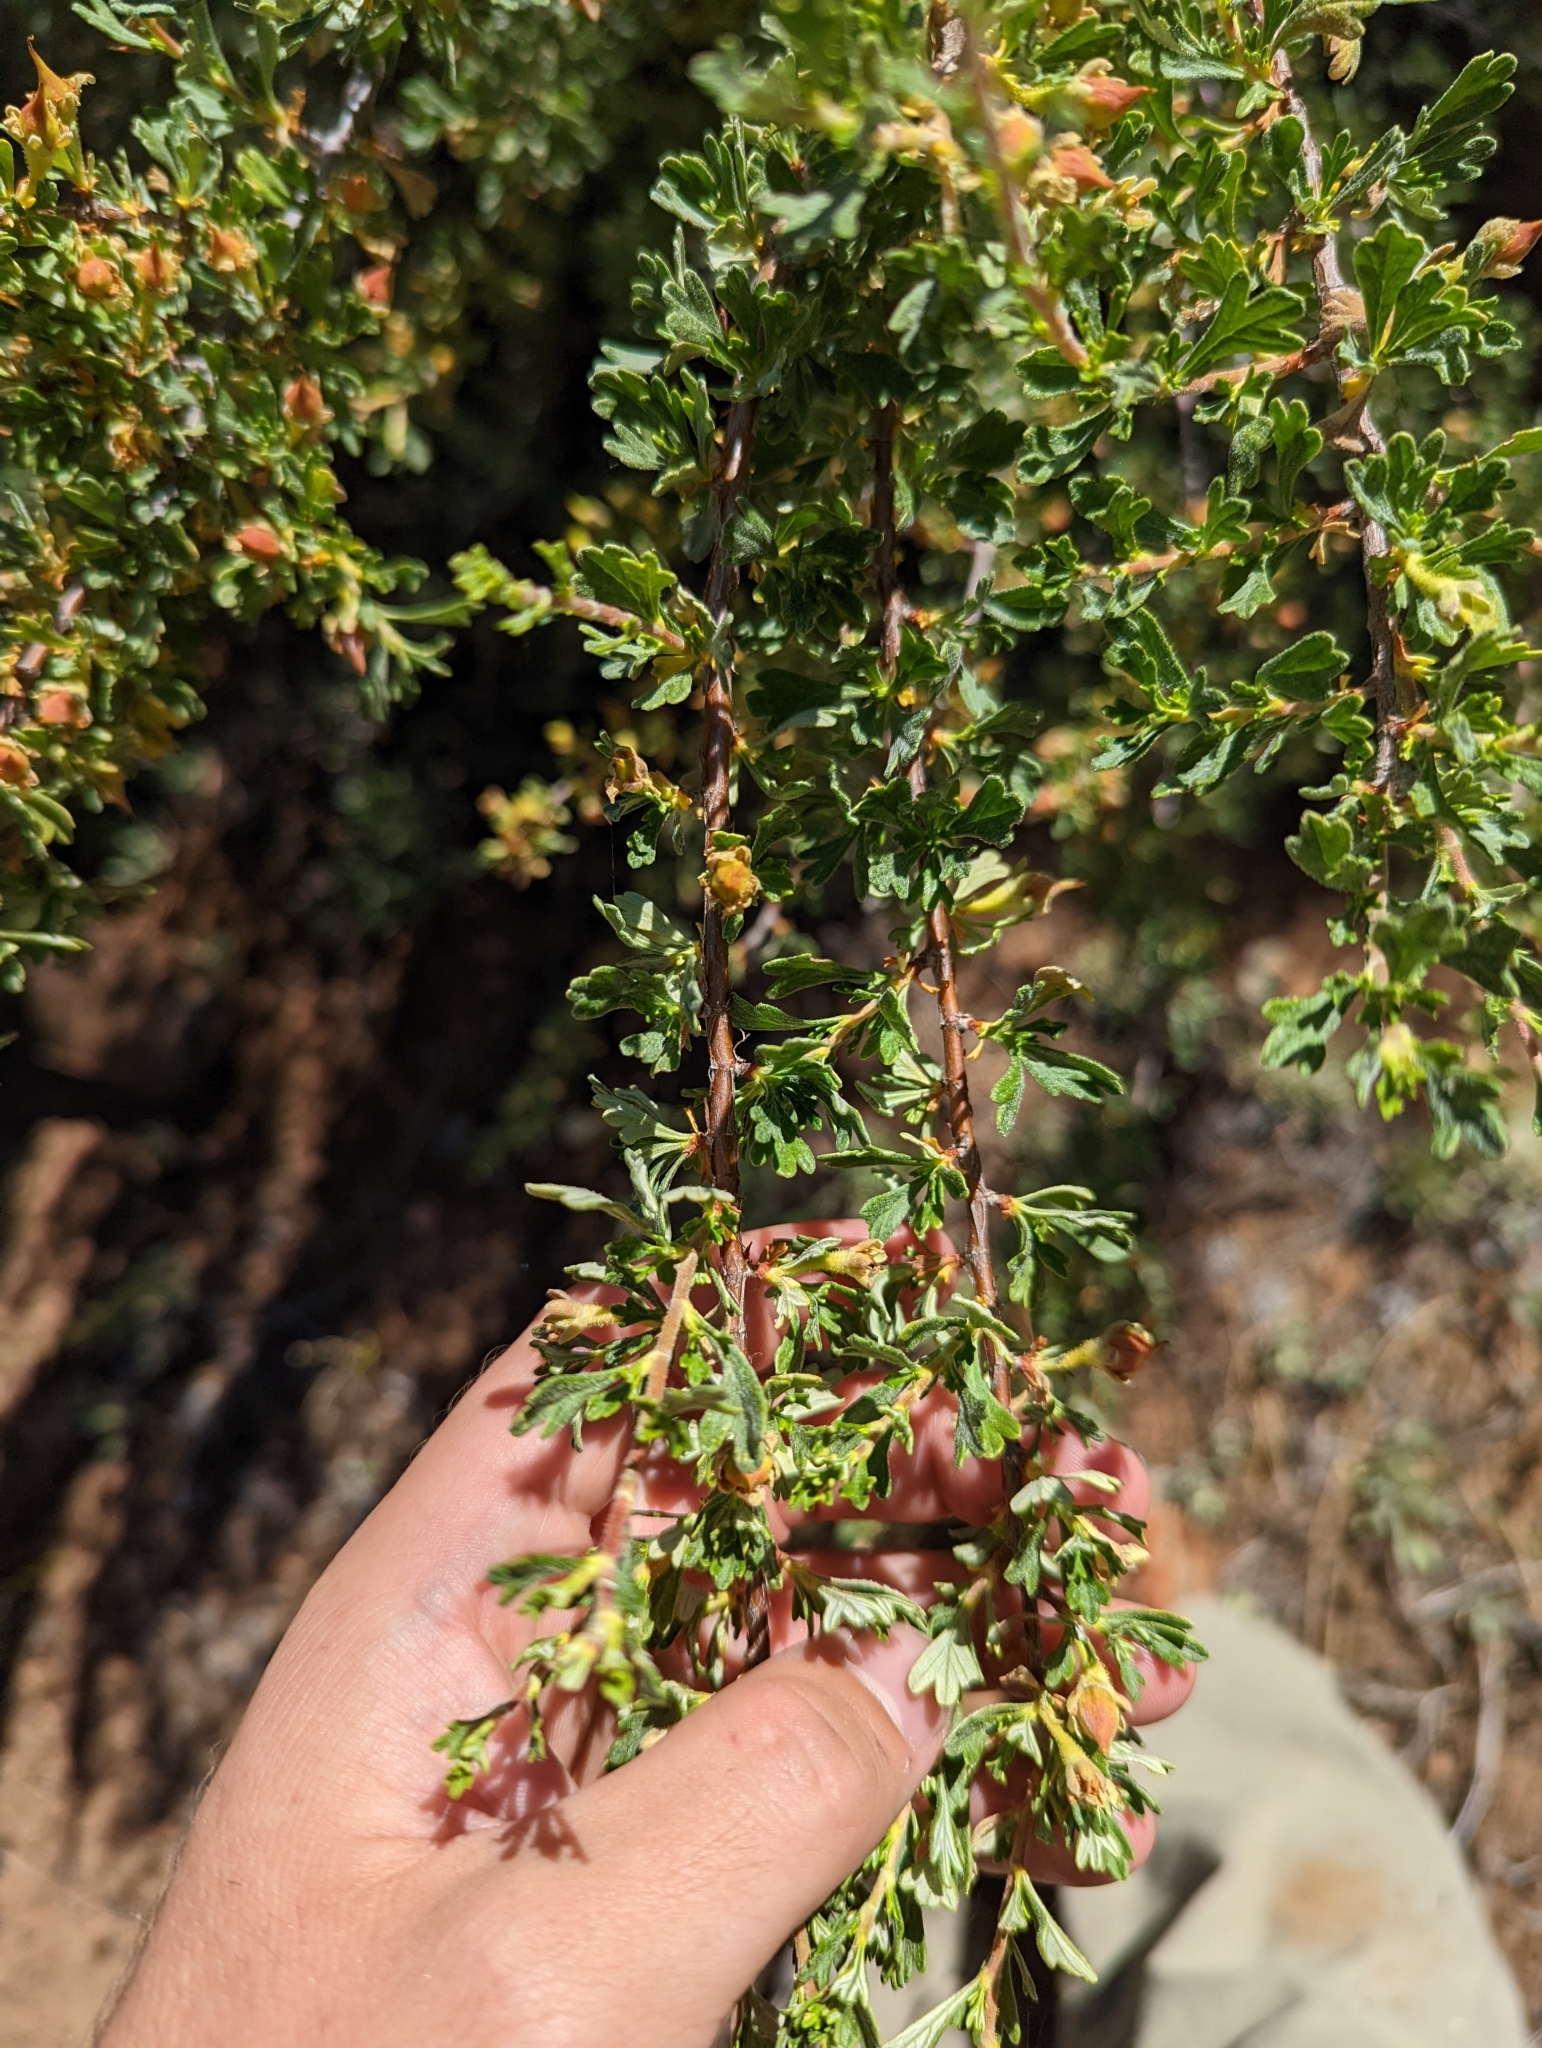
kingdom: Plantae
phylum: Tracheophyta
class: Magnoliopsida
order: Rosales
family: Rosaceae
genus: Purshia
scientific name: Purshia tridentata
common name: Antelope bitterbrush
